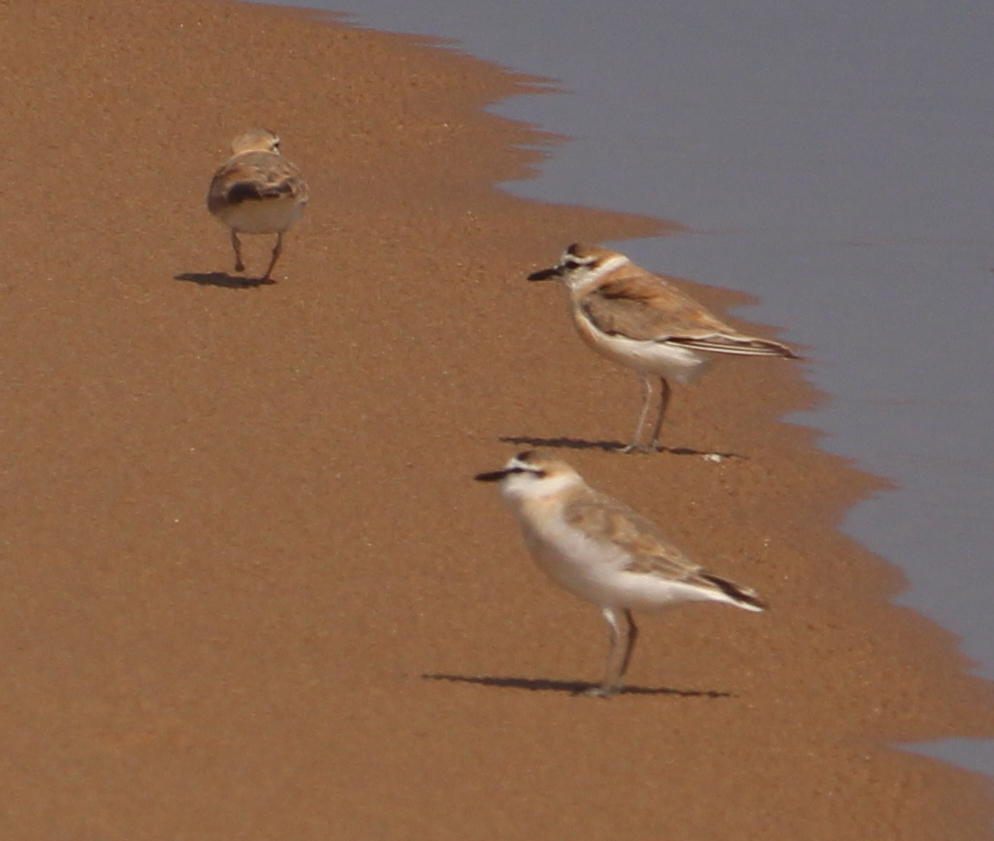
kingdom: Animalia
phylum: Chordata
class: Aves
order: Charadriiformes
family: Charadriidae
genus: Anarhynchus
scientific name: Anarhynchus
